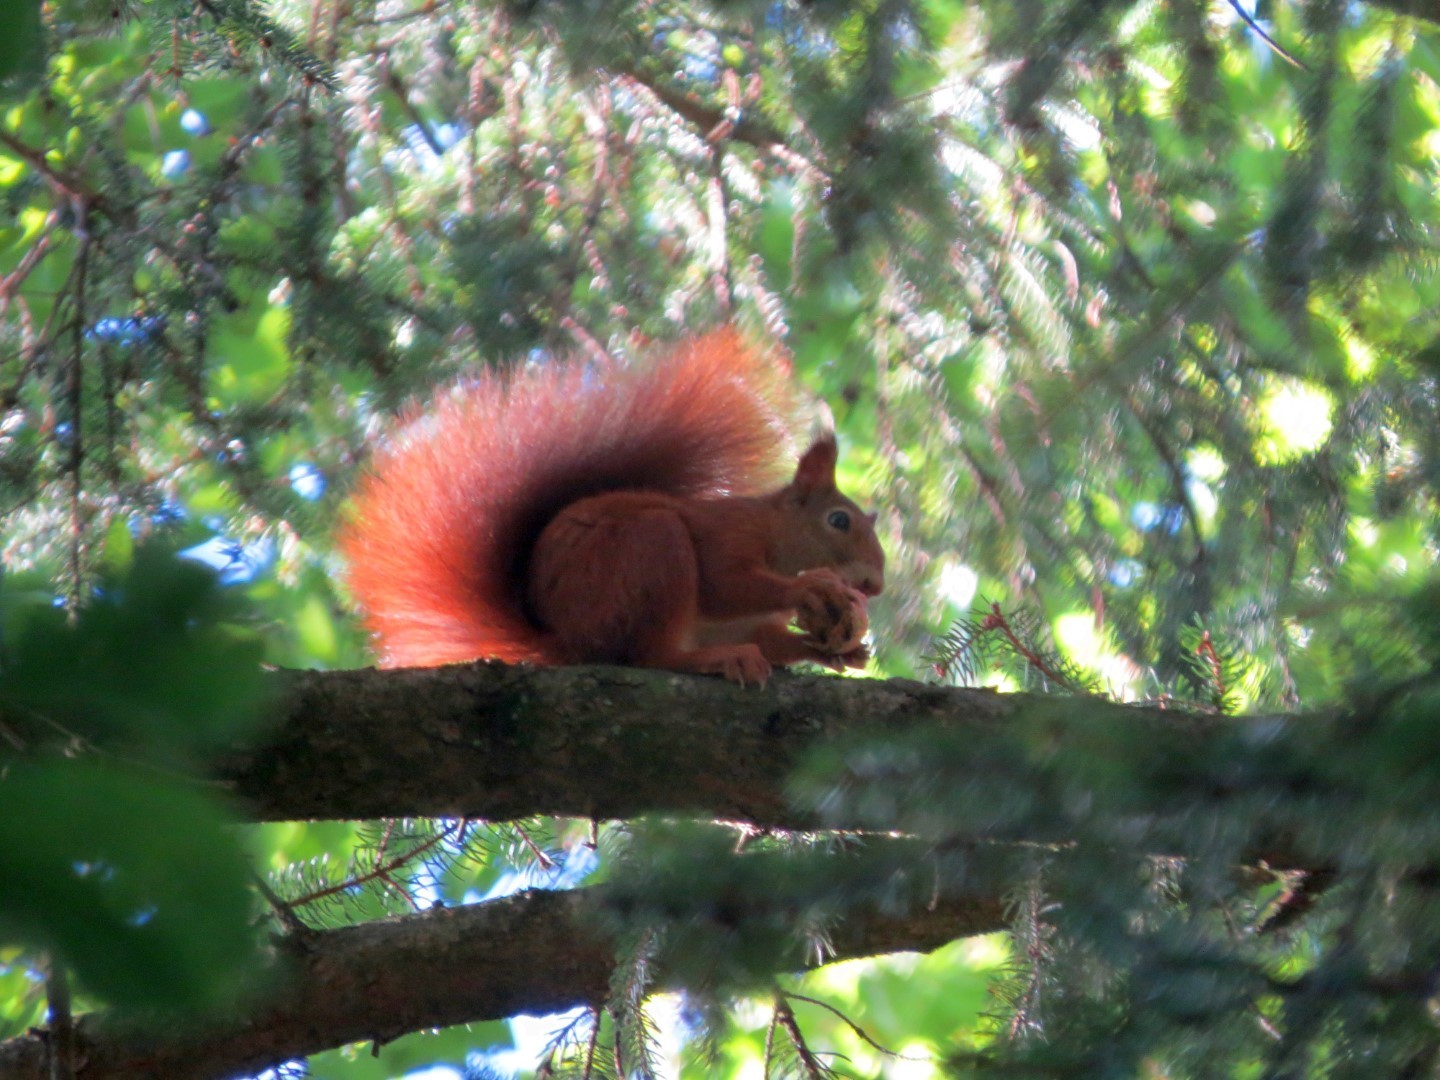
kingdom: Animalia
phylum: Chordata
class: Mammalia
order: Rodentia
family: Sciuridae
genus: Sciurus
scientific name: Sciurus vulgaris
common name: Eurasian red squirrel
